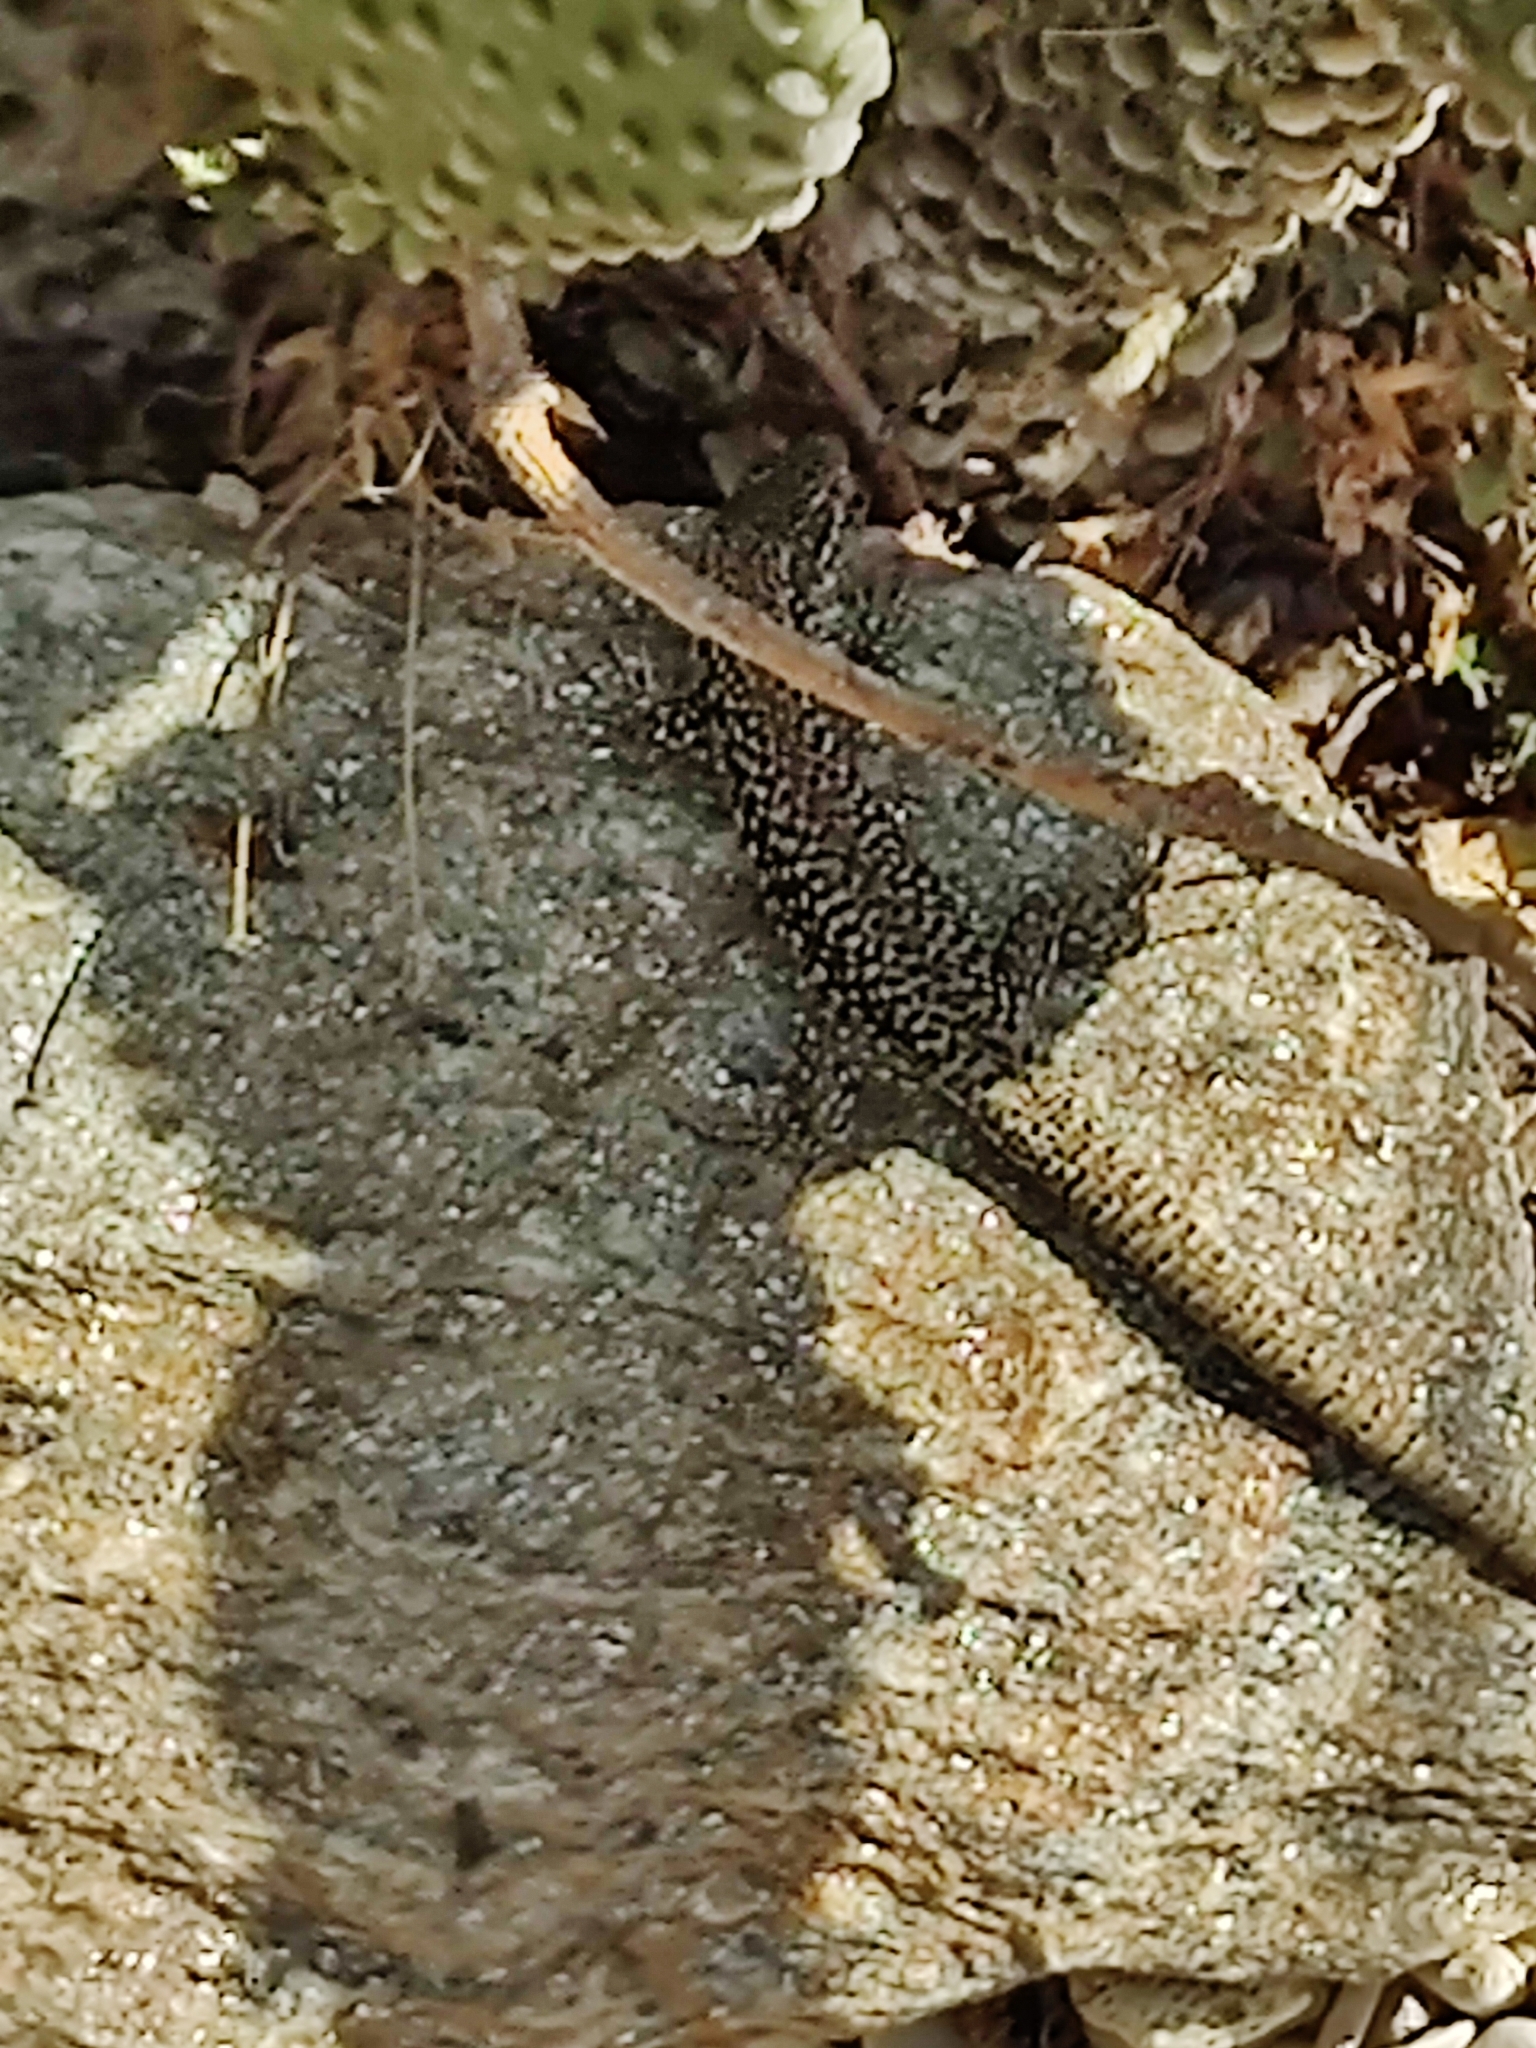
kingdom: Animalia
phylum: Chordata
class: Squamata
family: Lacertidae
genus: Podarcis
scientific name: Podarcis muralis
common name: Common wall lizard
